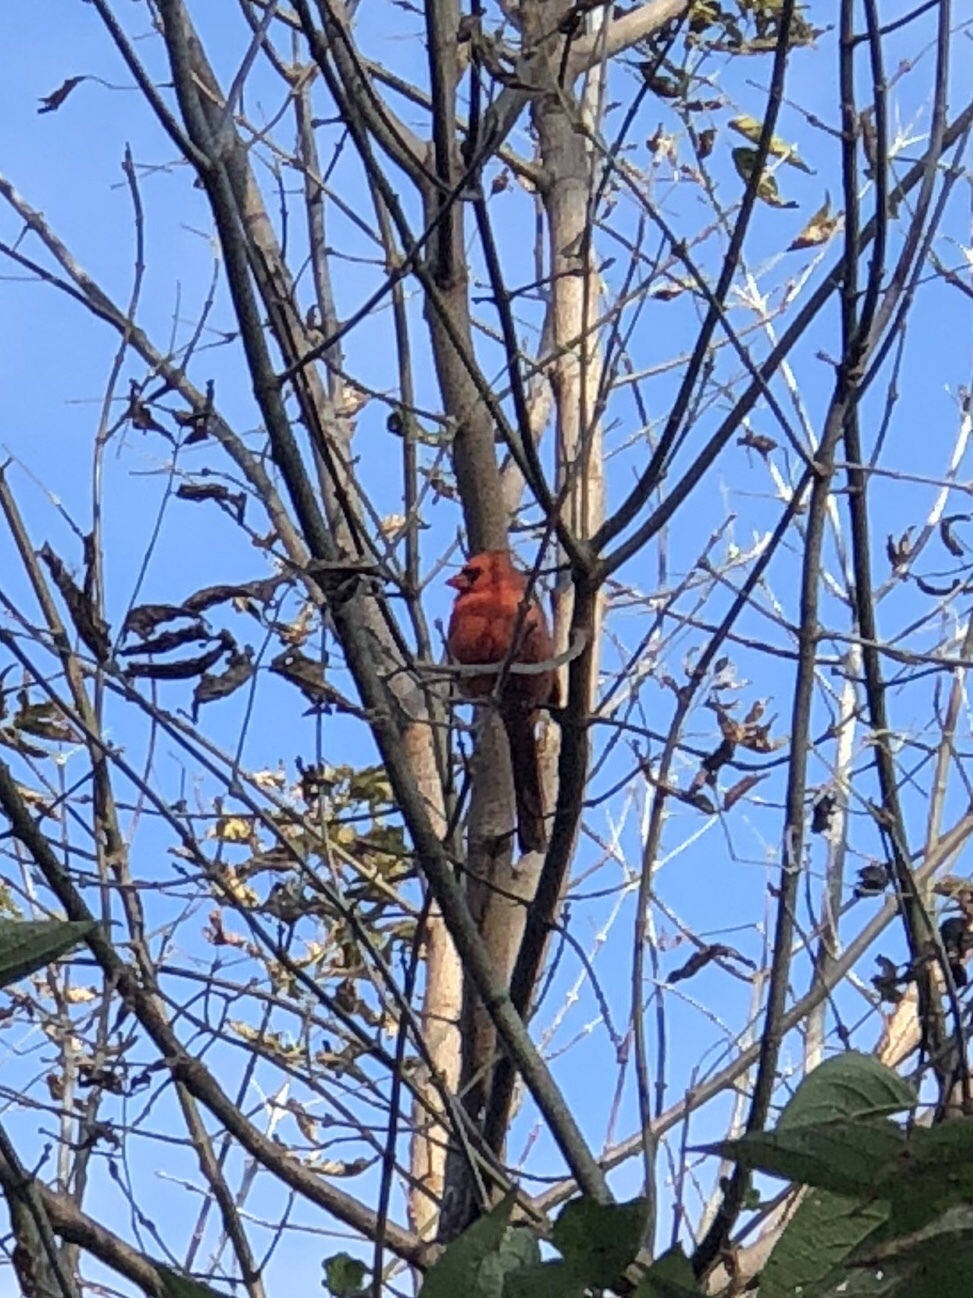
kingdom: Animalia
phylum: Chordata
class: Aves
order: Passeriformes
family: Cardinalidae
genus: Cardinalis
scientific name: Cardinalis cardinalis
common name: Northern cardinal
